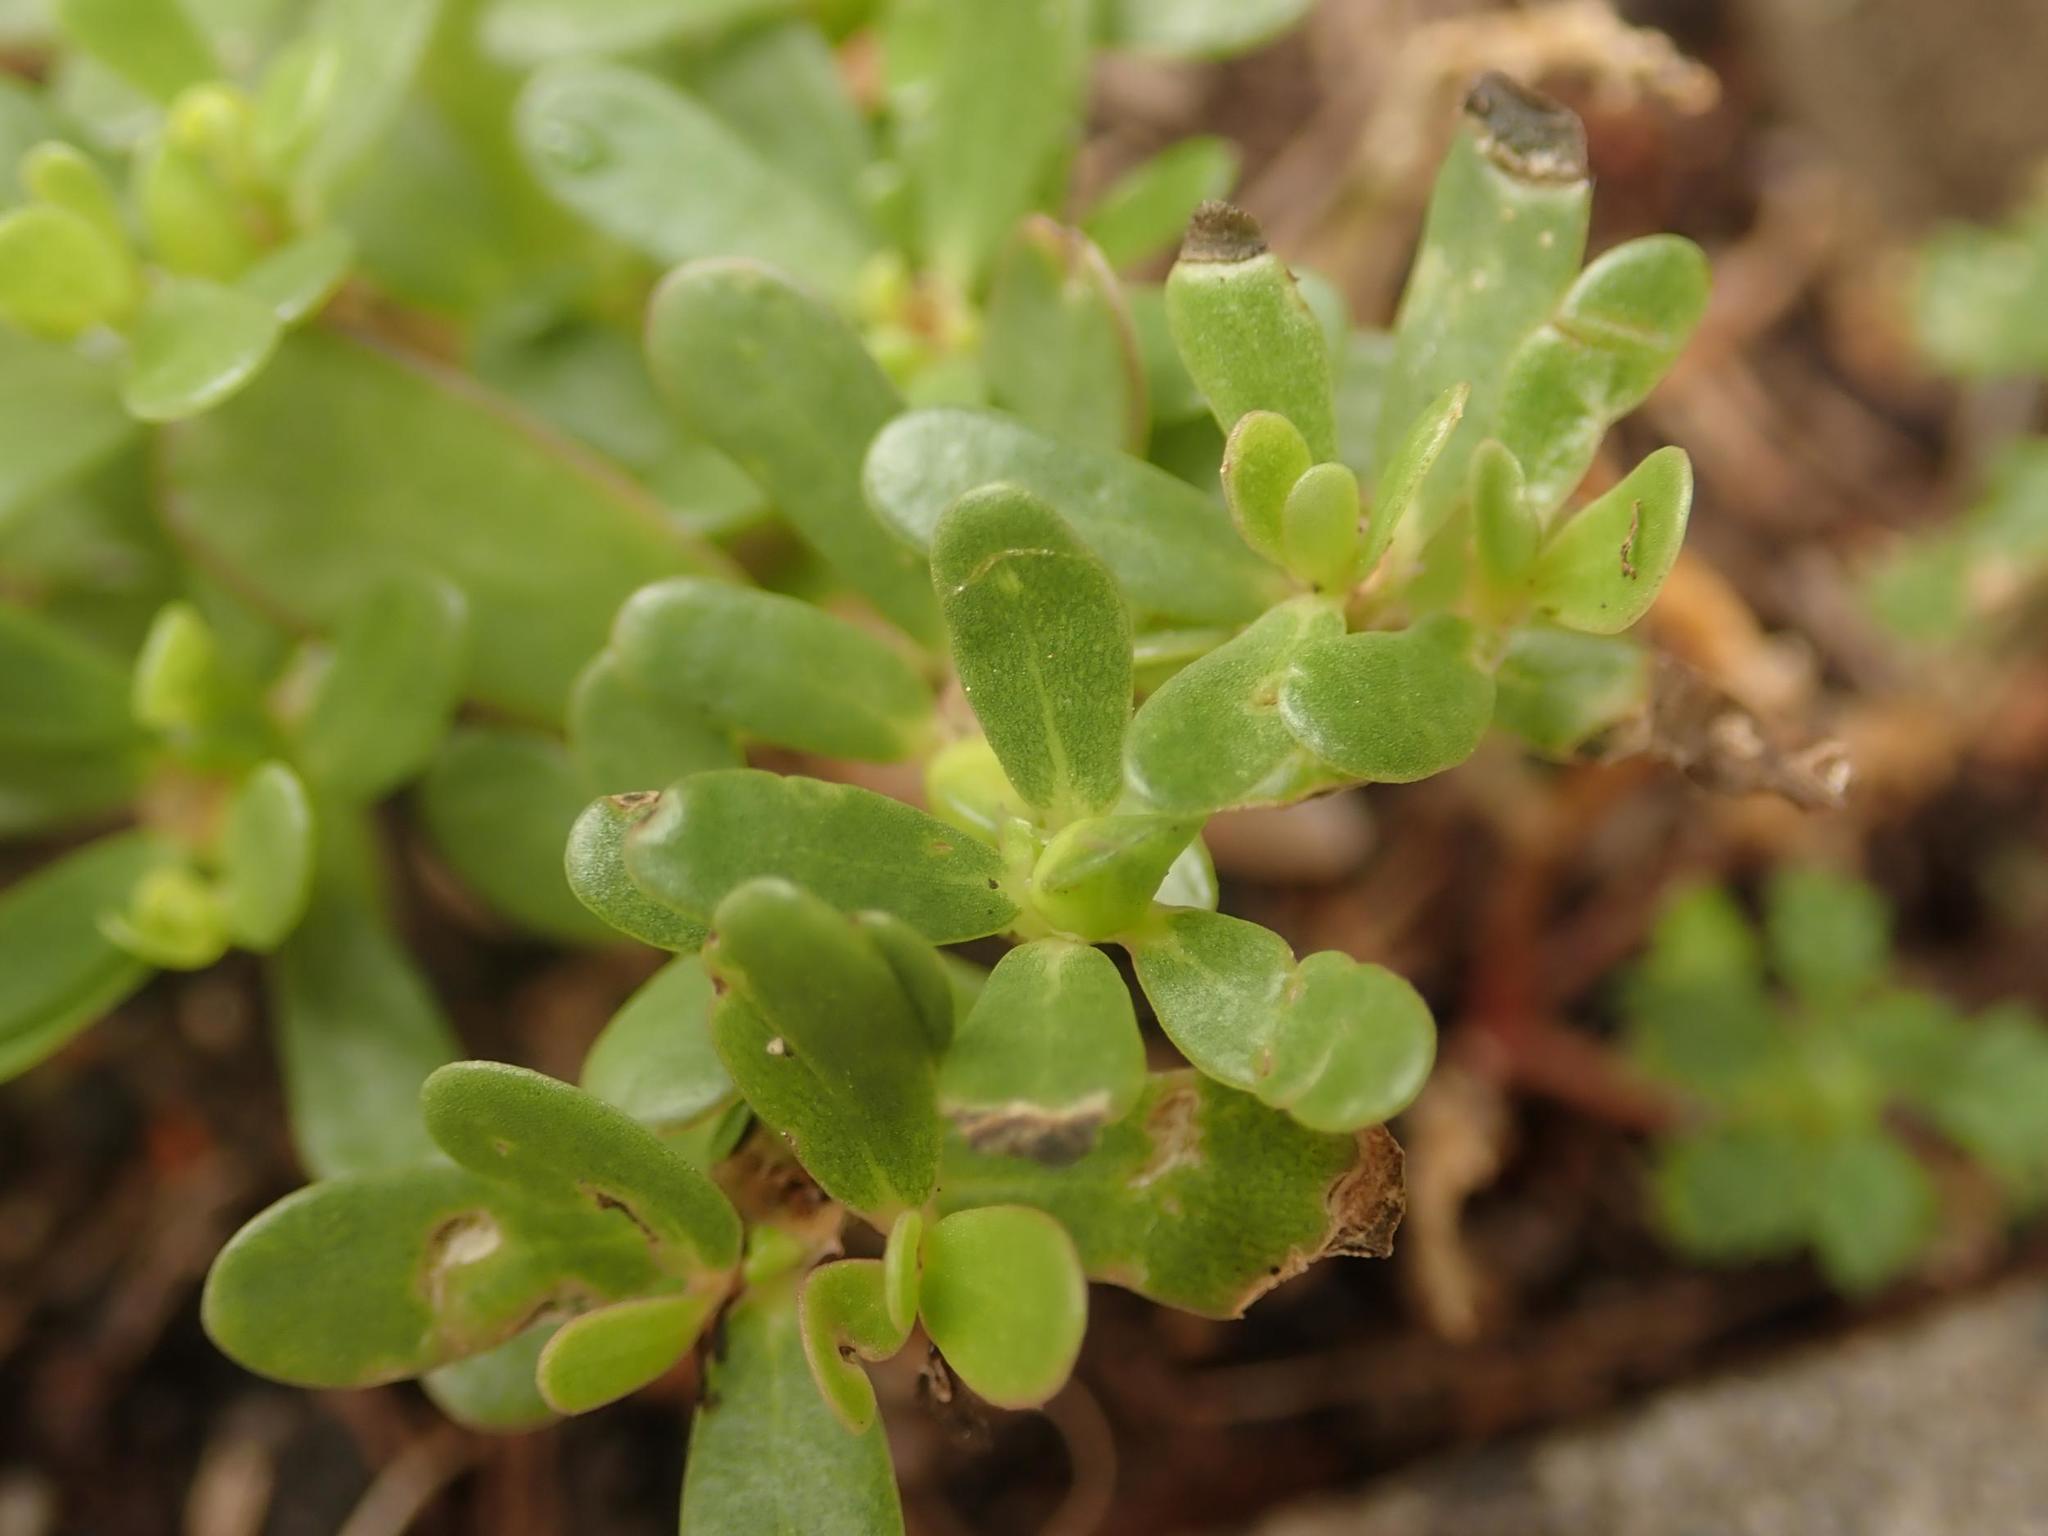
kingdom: Plantae
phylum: Tracheophyta
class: Magnoliopsida
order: Caryophyllales
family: Portulacaceae
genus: Portulaca
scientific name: Portulaca oleracea
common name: Common purslane
